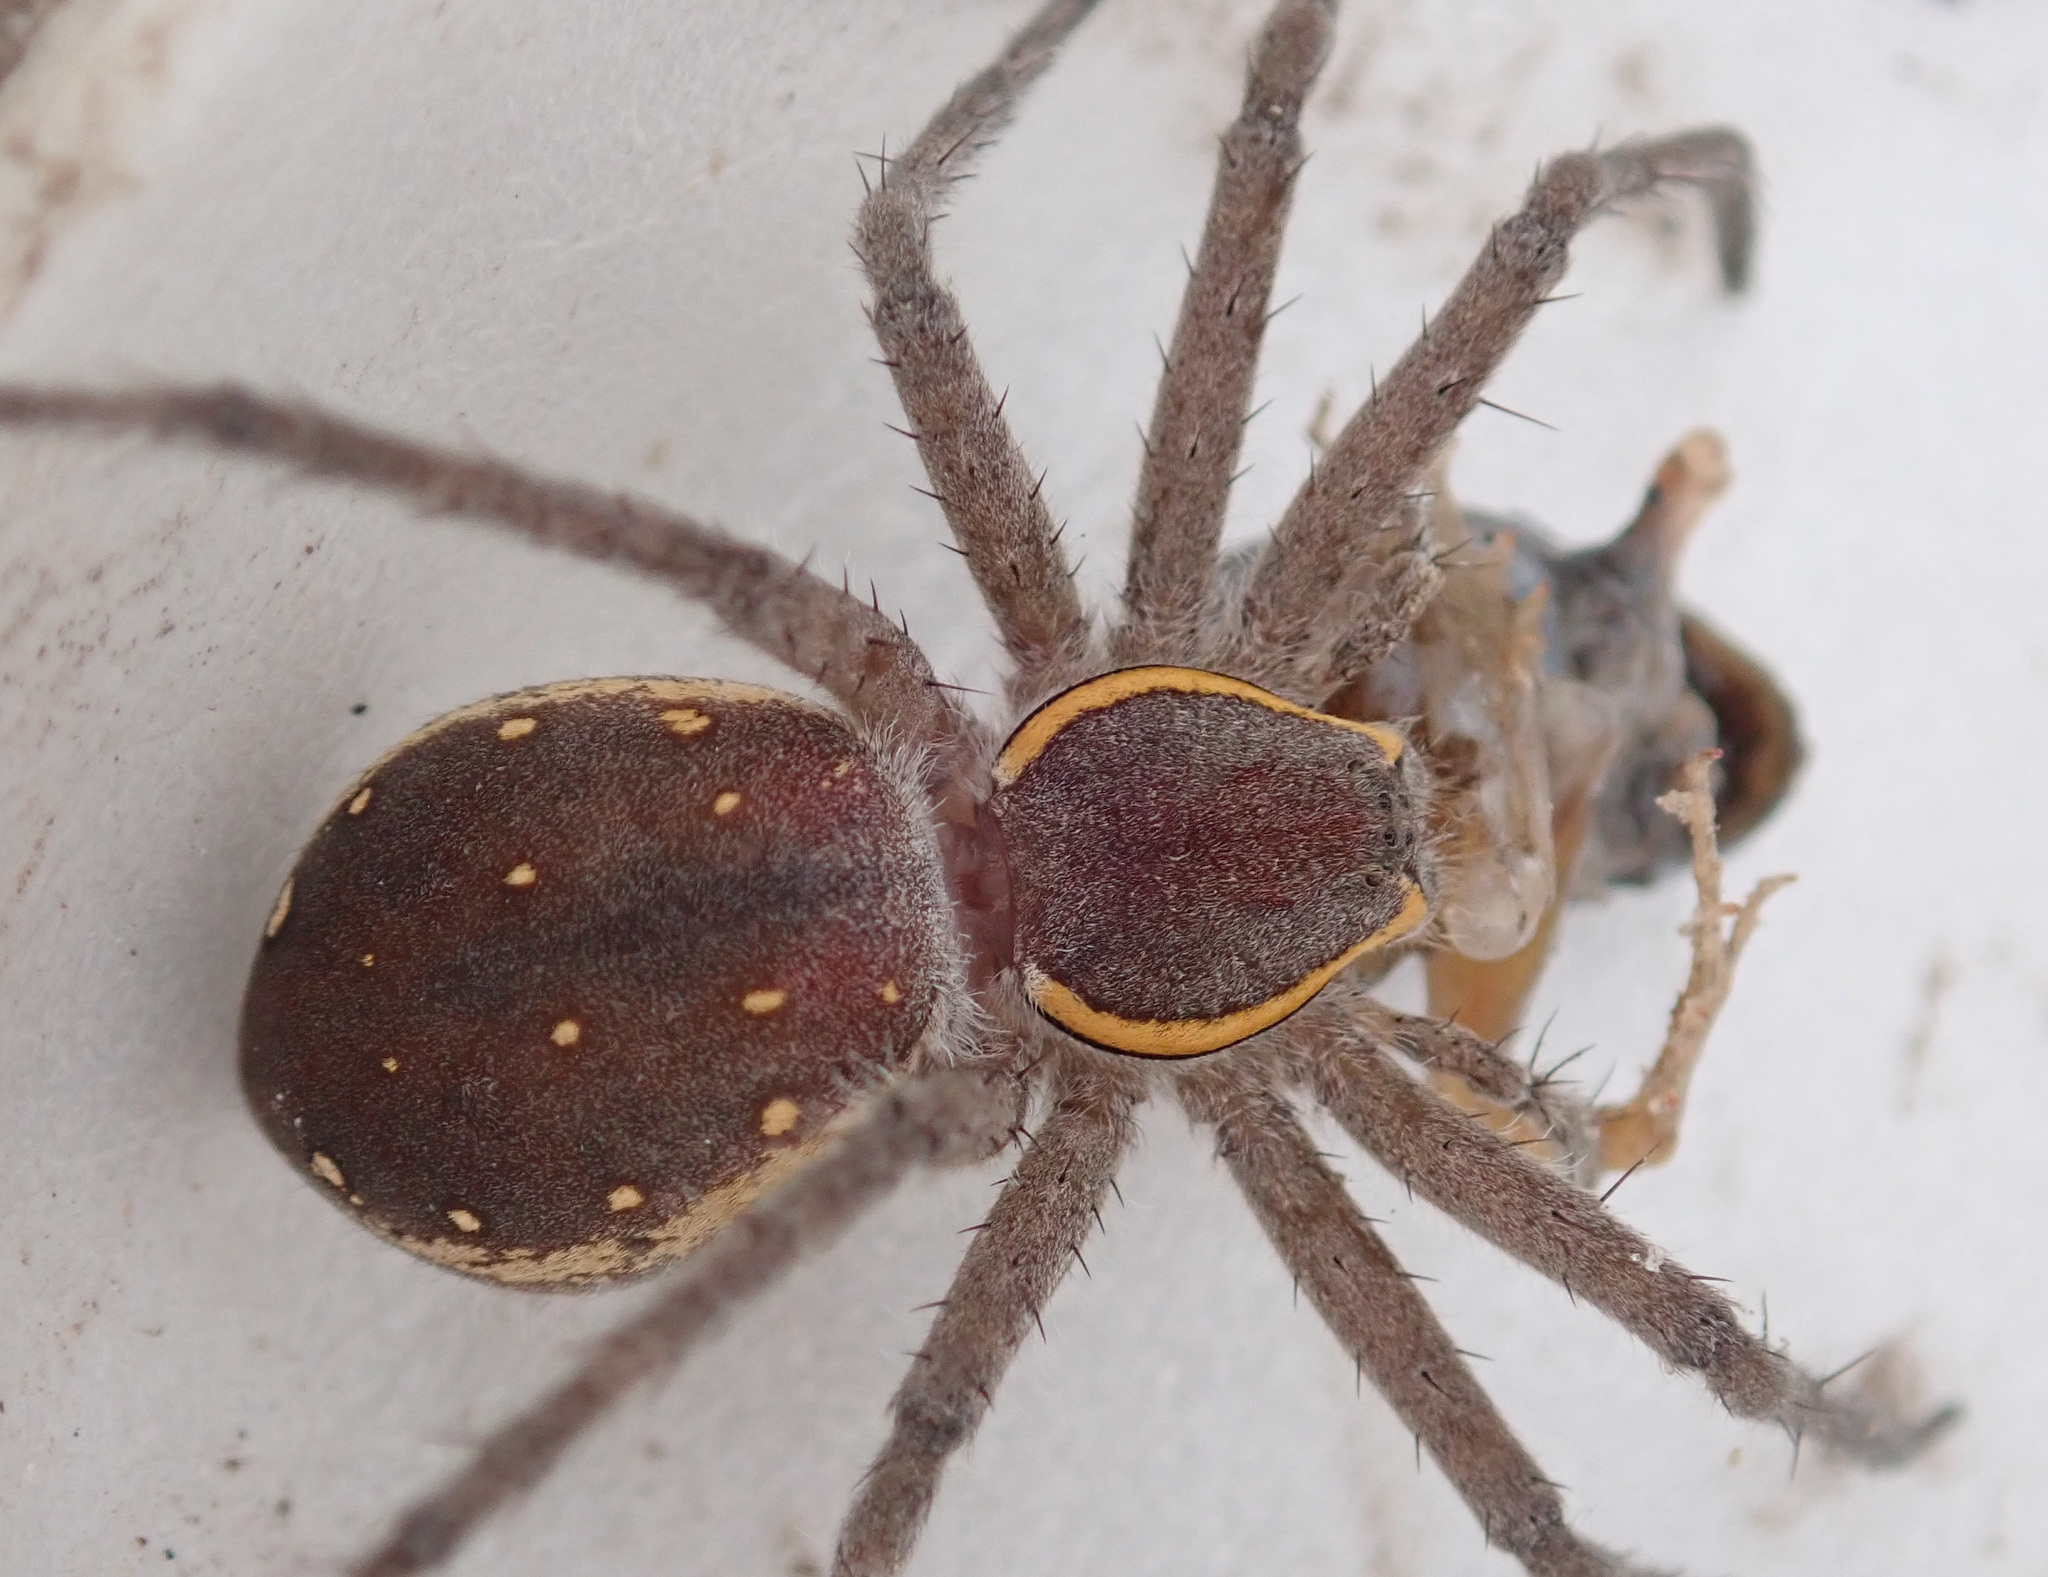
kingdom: Animalia
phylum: Arthropoda
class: Arachnida
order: Araneae
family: Pisauridae
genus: Nilus
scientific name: Nilus margaritatus
